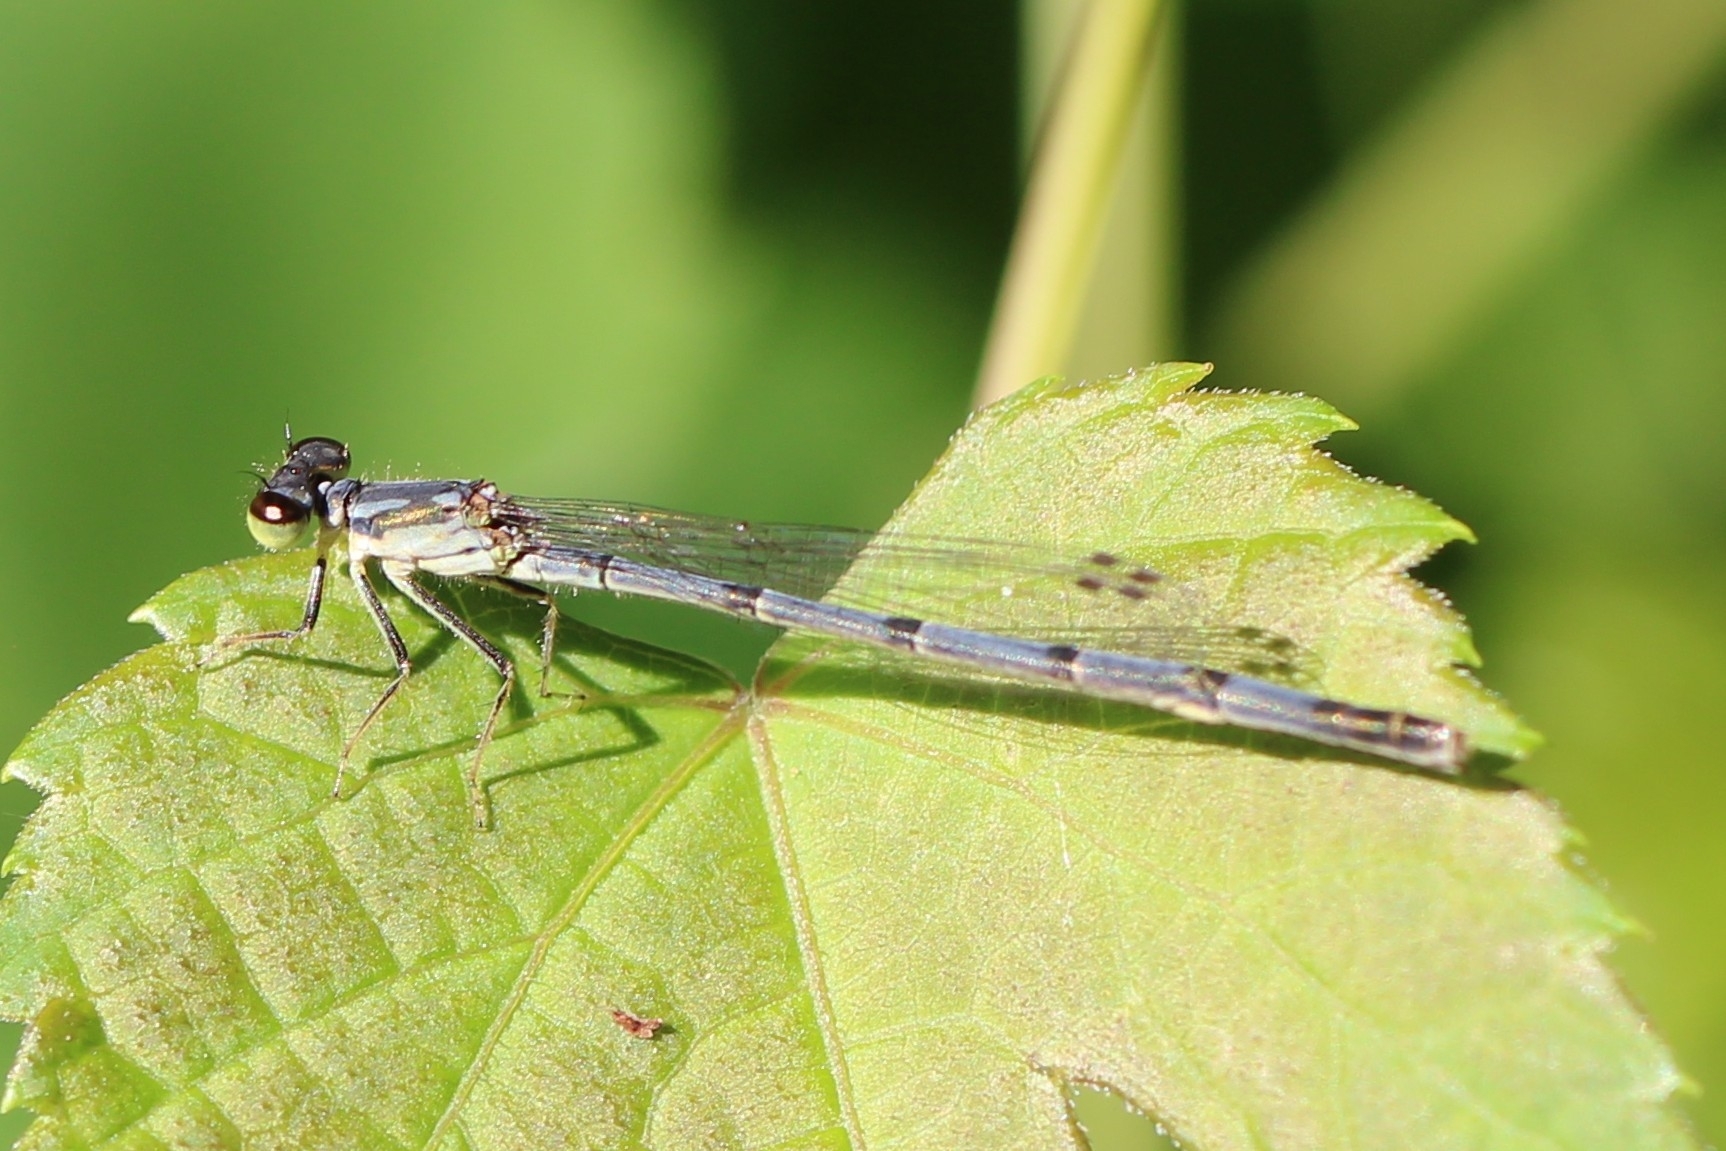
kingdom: Animalia
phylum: Arthropoda
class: Insecta
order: Odonata
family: Coenagrionidae
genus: Ischnura
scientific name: Ischnura posita
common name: Fragile forktail
